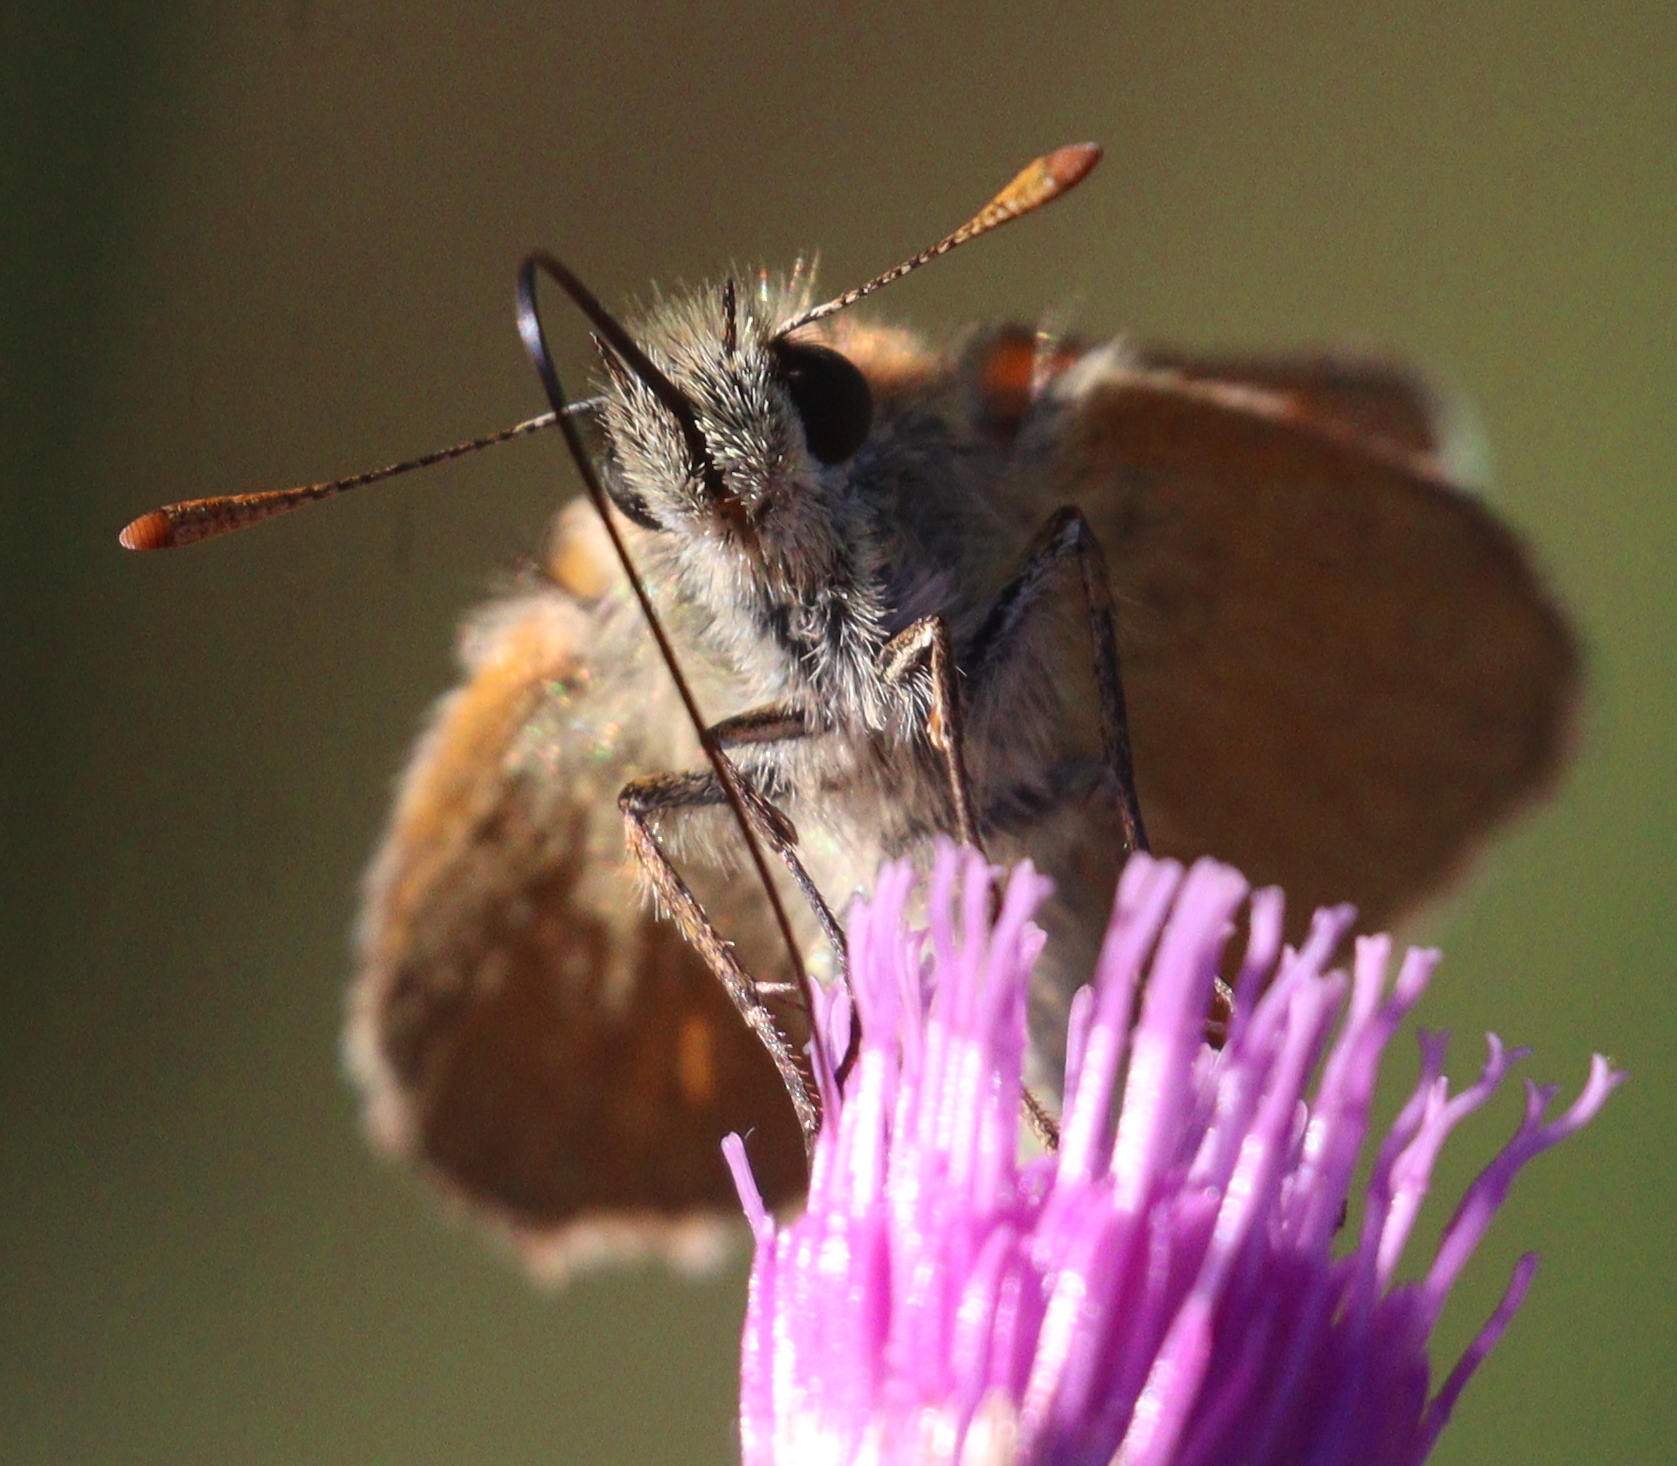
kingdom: Animalia
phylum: Arthropoda
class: Insecta
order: Lepidoptera
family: Hesperiidae
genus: Thymelicus
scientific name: Thymelicus sylvestris
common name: Small skipper
